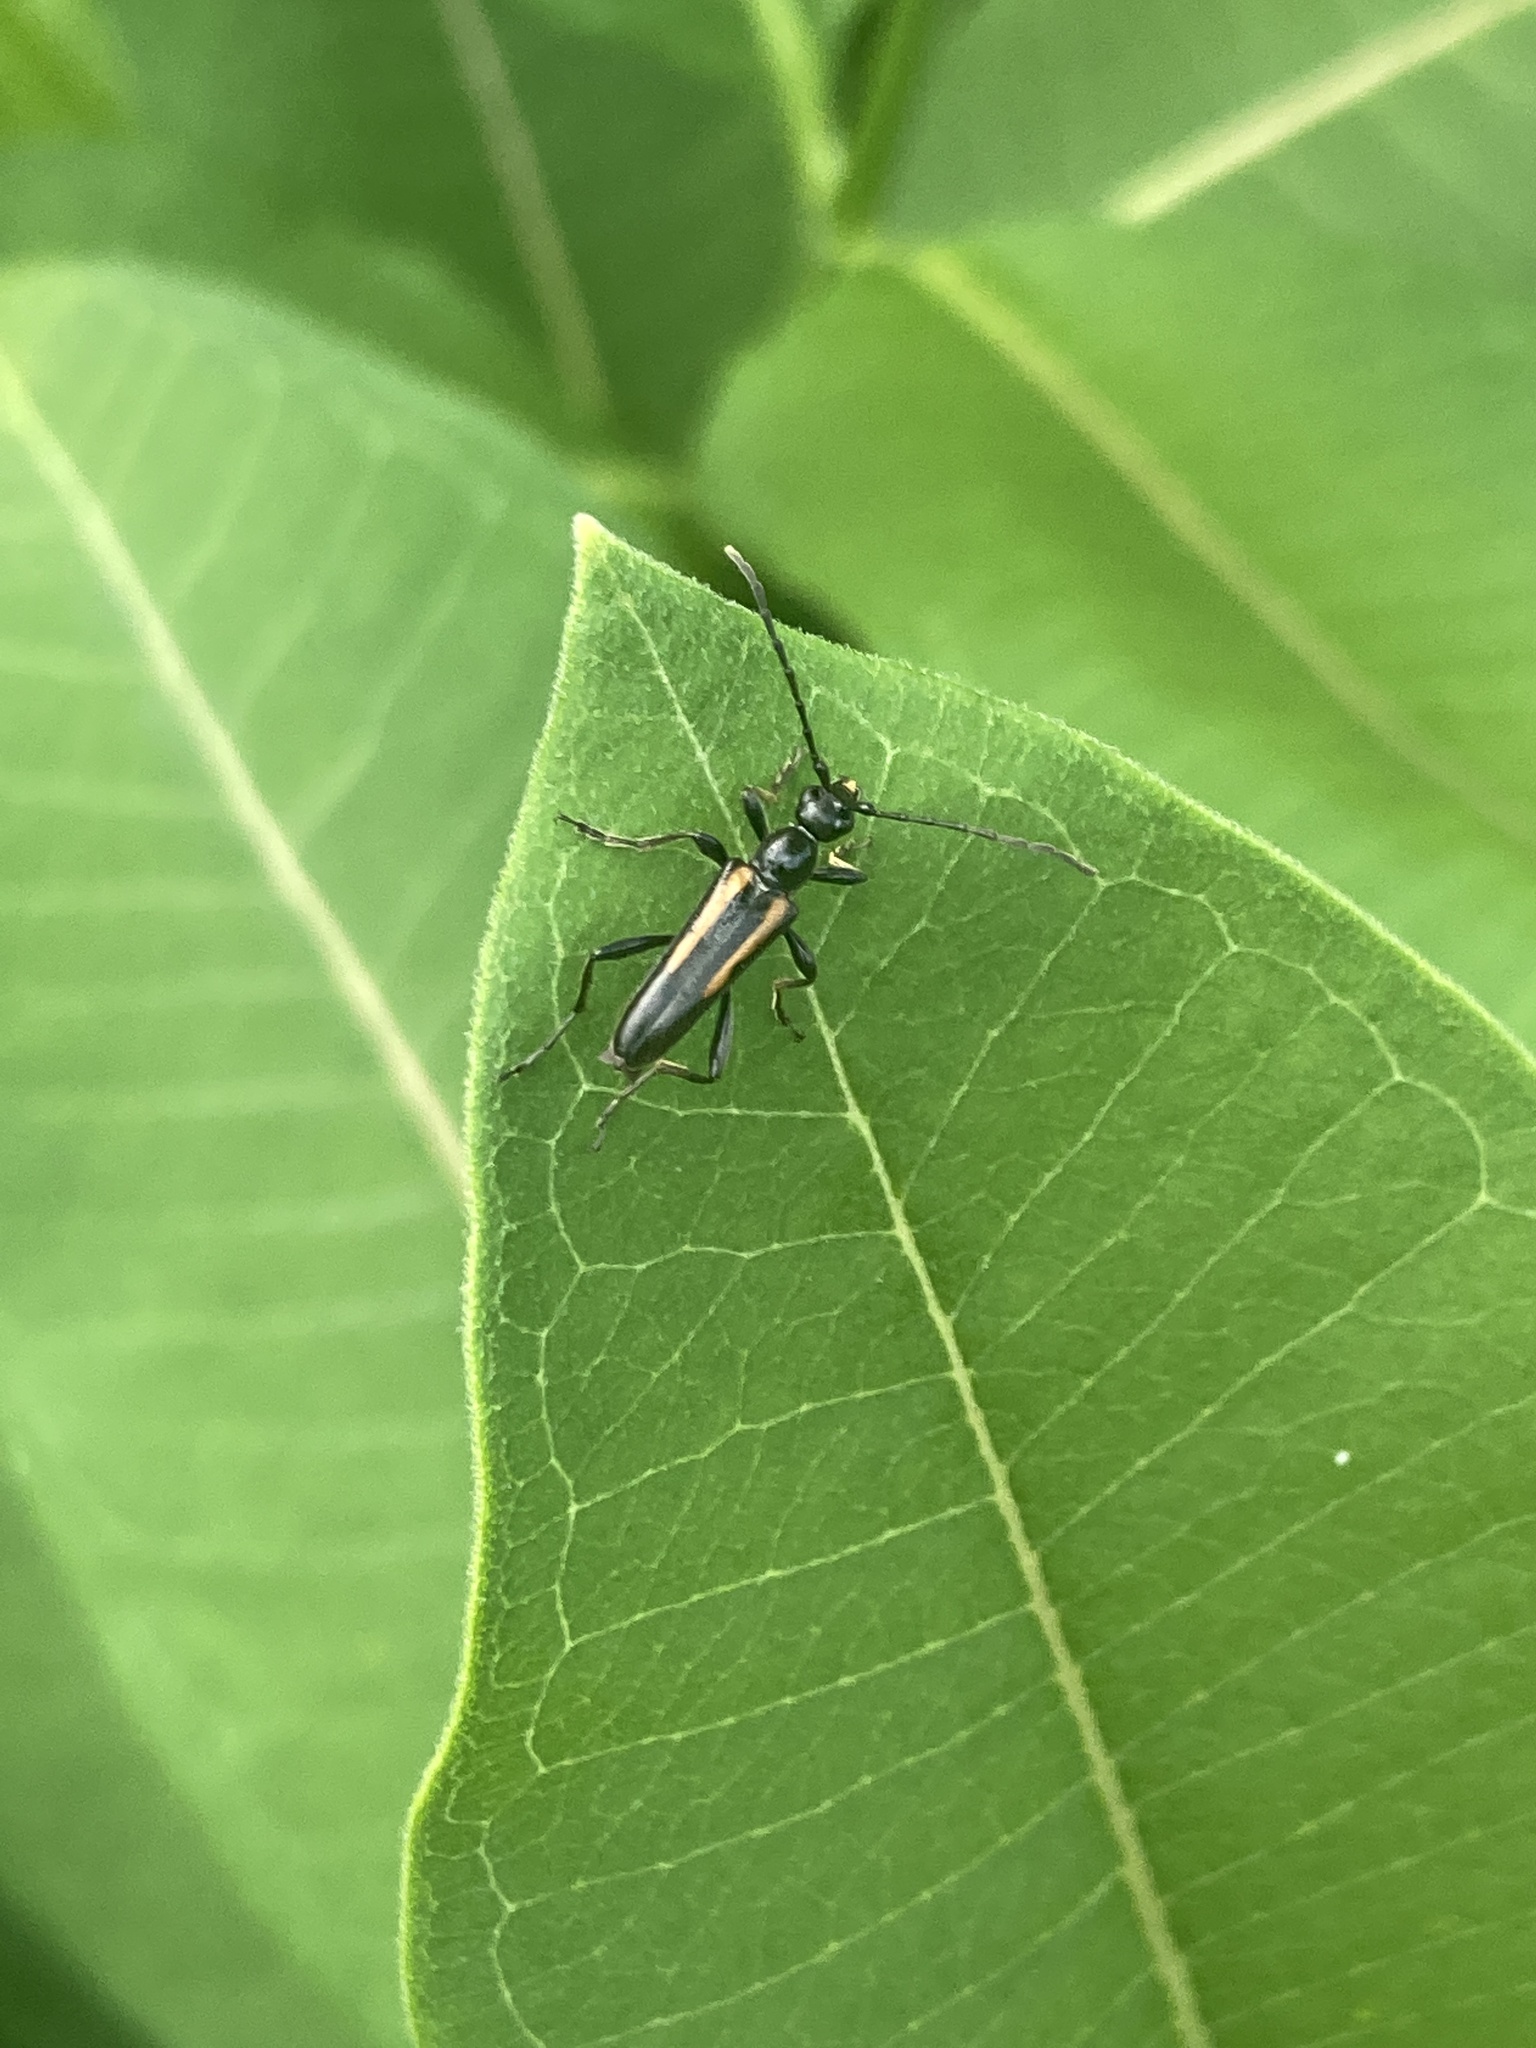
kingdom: Animalia
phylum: Arthropoda
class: Insecta
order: Coleoptera
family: Cerambycidae
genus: Strangalepta
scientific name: Strangalepta abbreviata
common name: Strangalepta flower longhorn beetle
